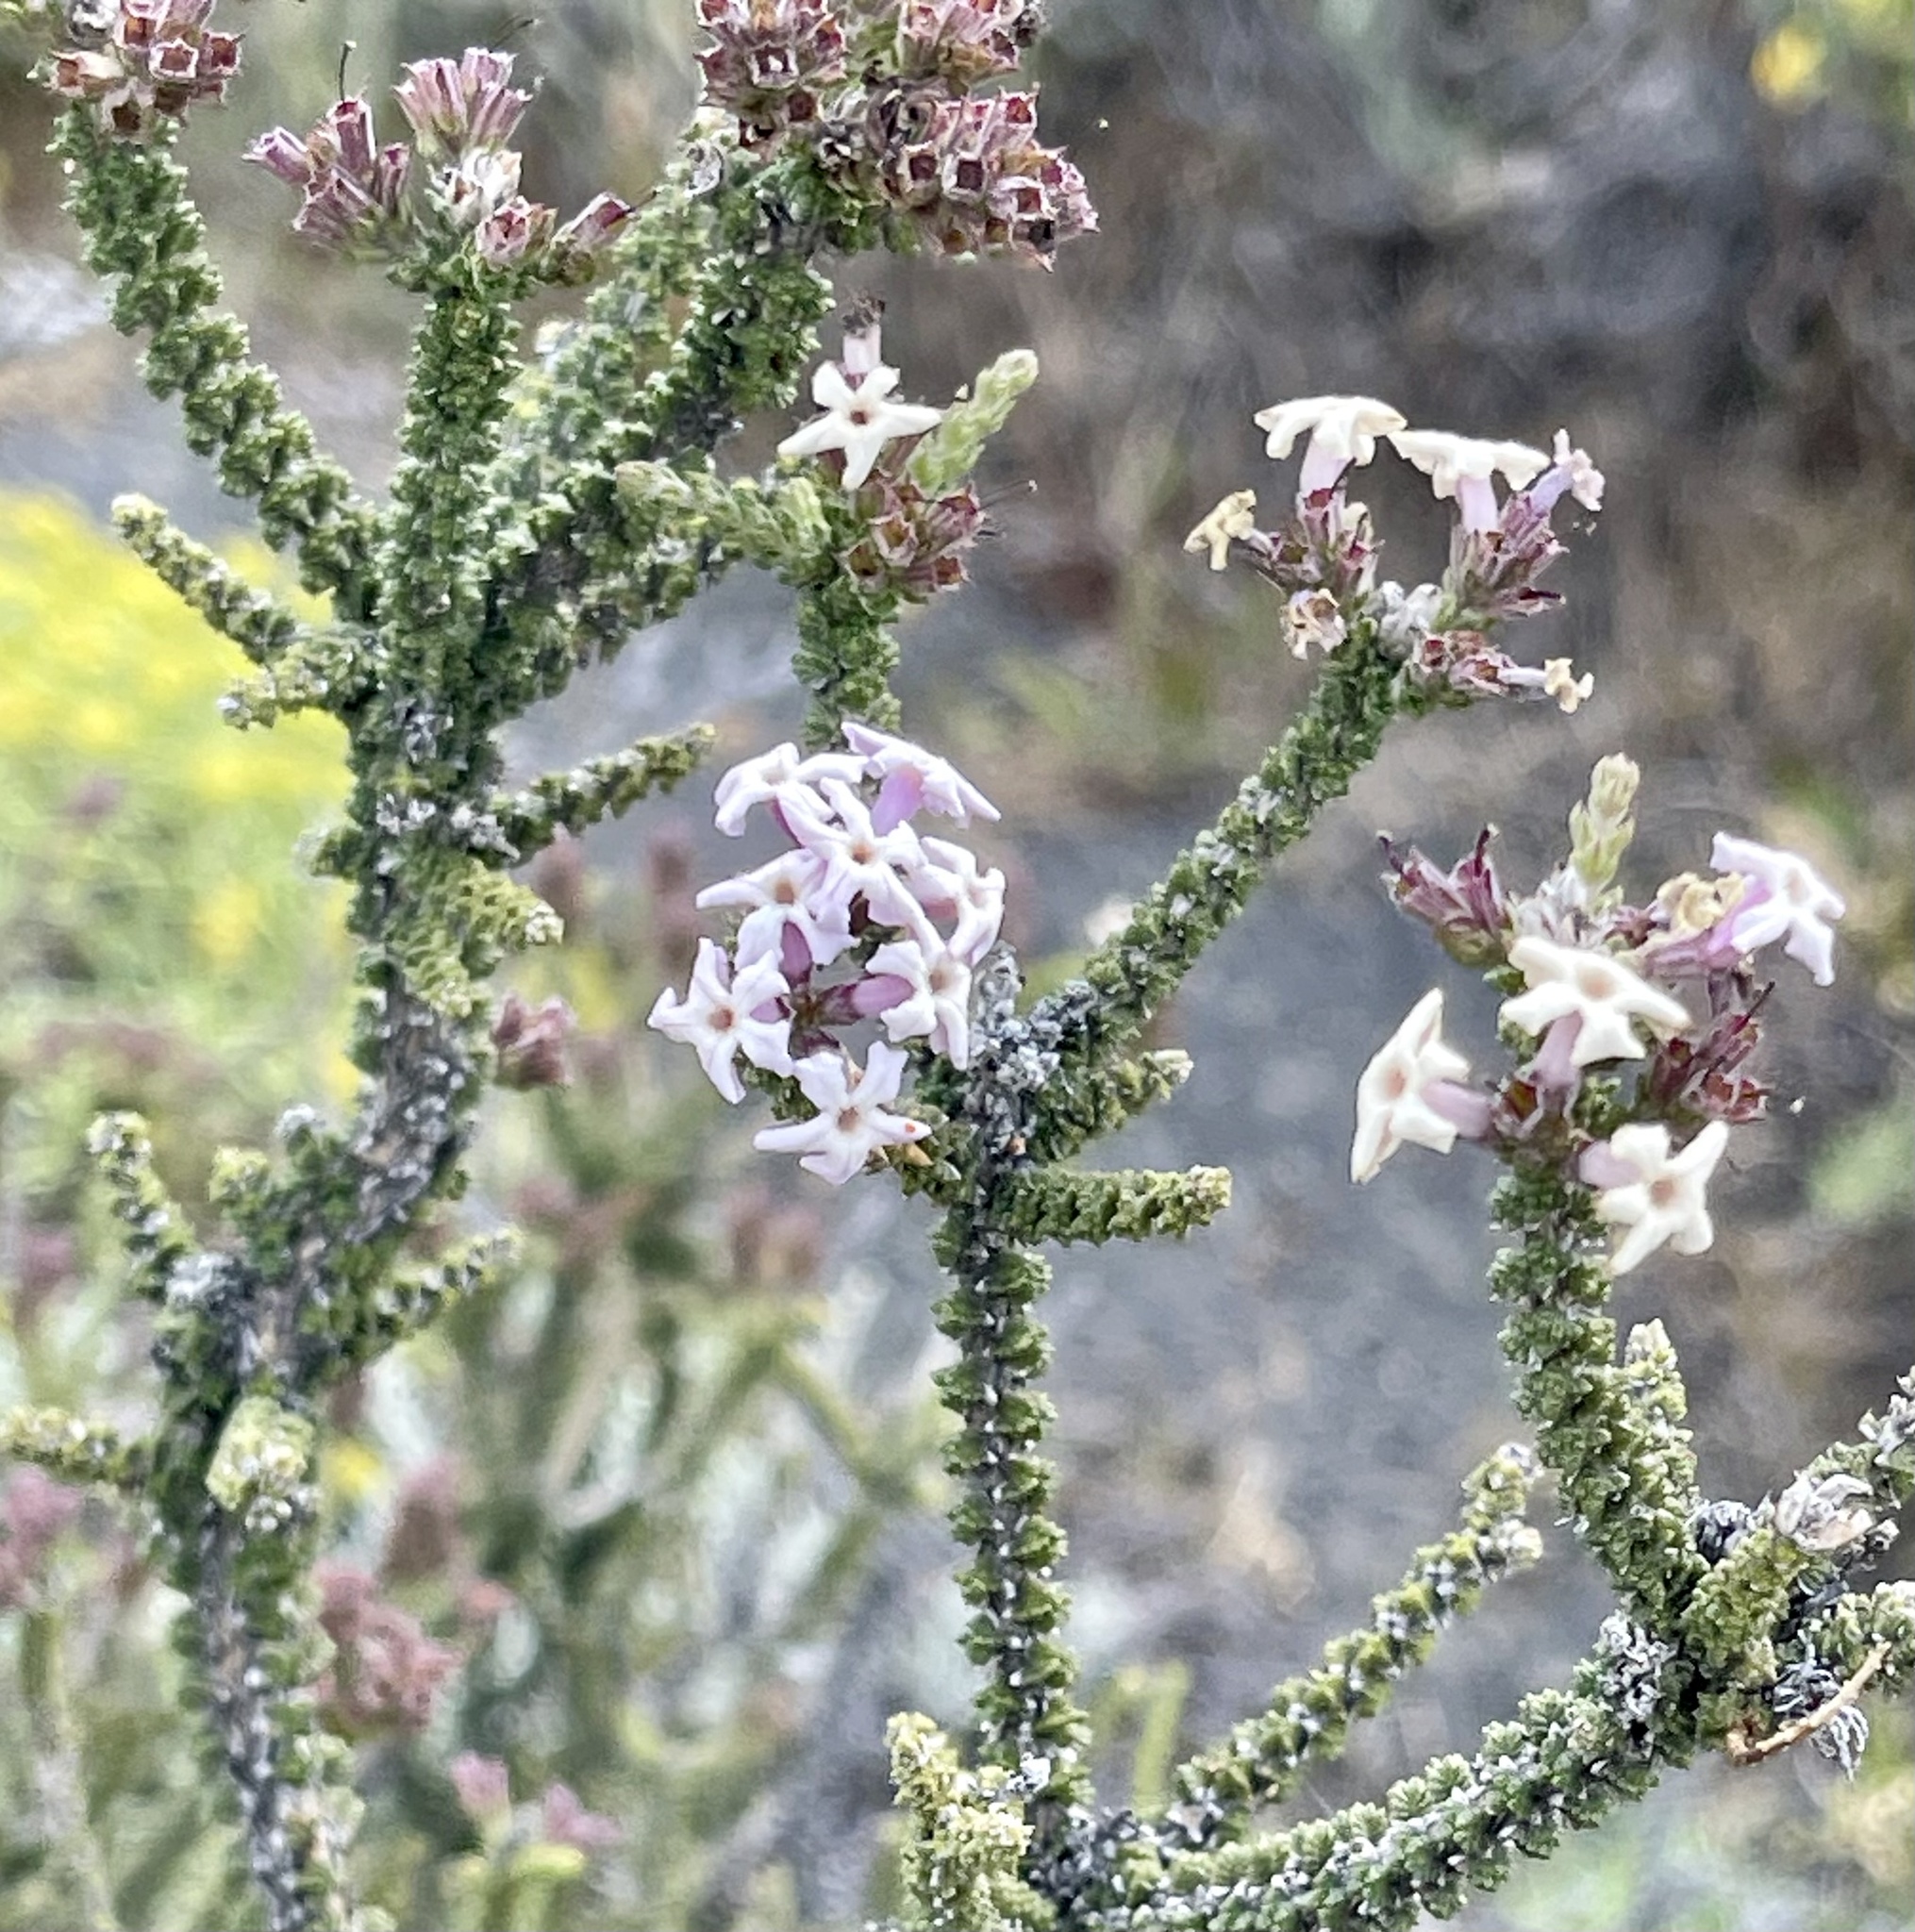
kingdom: Plantae
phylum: Tracheophyta
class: Magnoliopsida
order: Lamiales
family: Verbenaceae
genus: Mulguraea
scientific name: Mulguraea tridens
